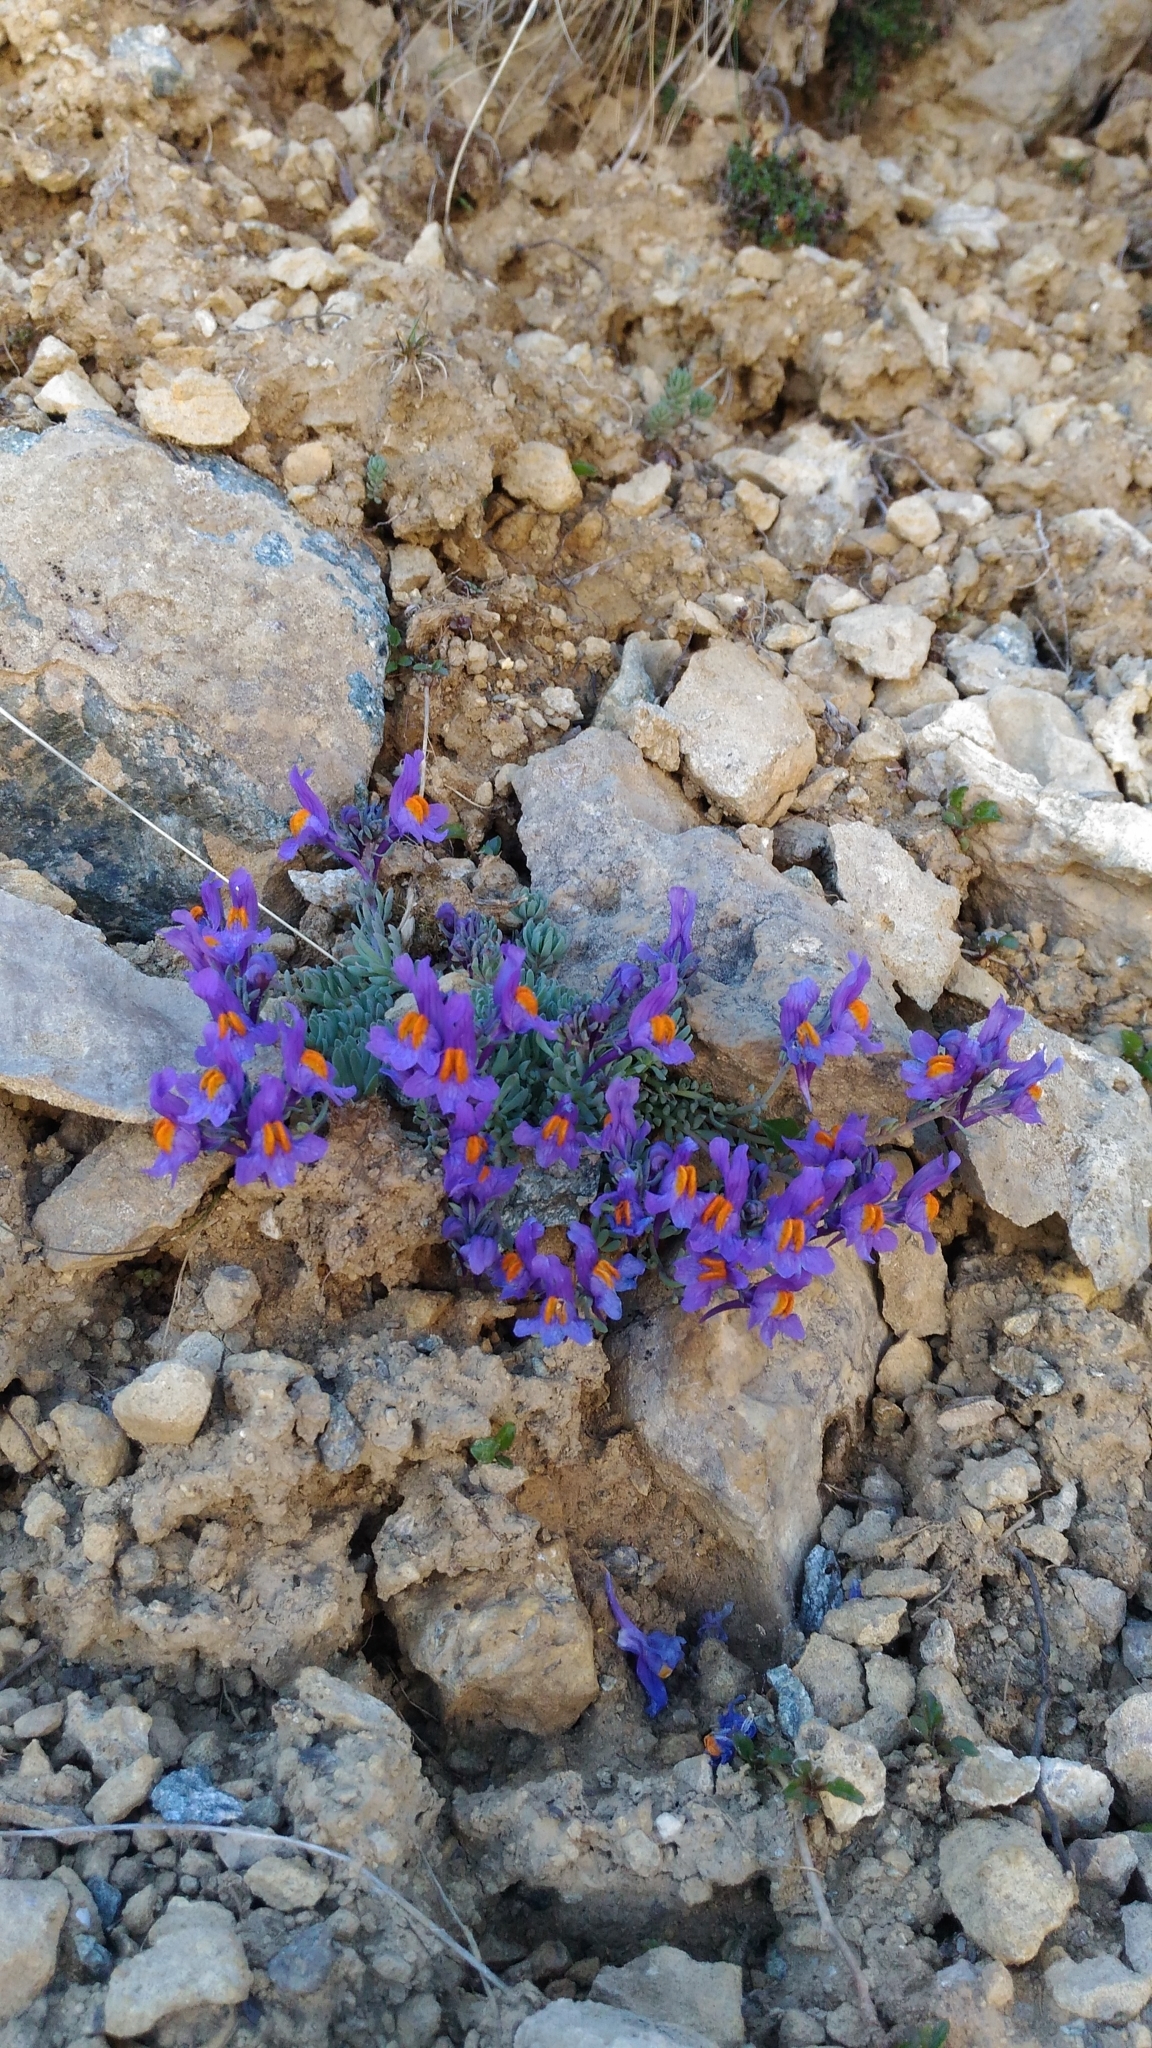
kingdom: Plantae
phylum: Tracheophyta
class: Magnoliopsida
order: Lamiales
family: Plantaginaceae
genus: Linaria
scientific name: Linaria alpina
